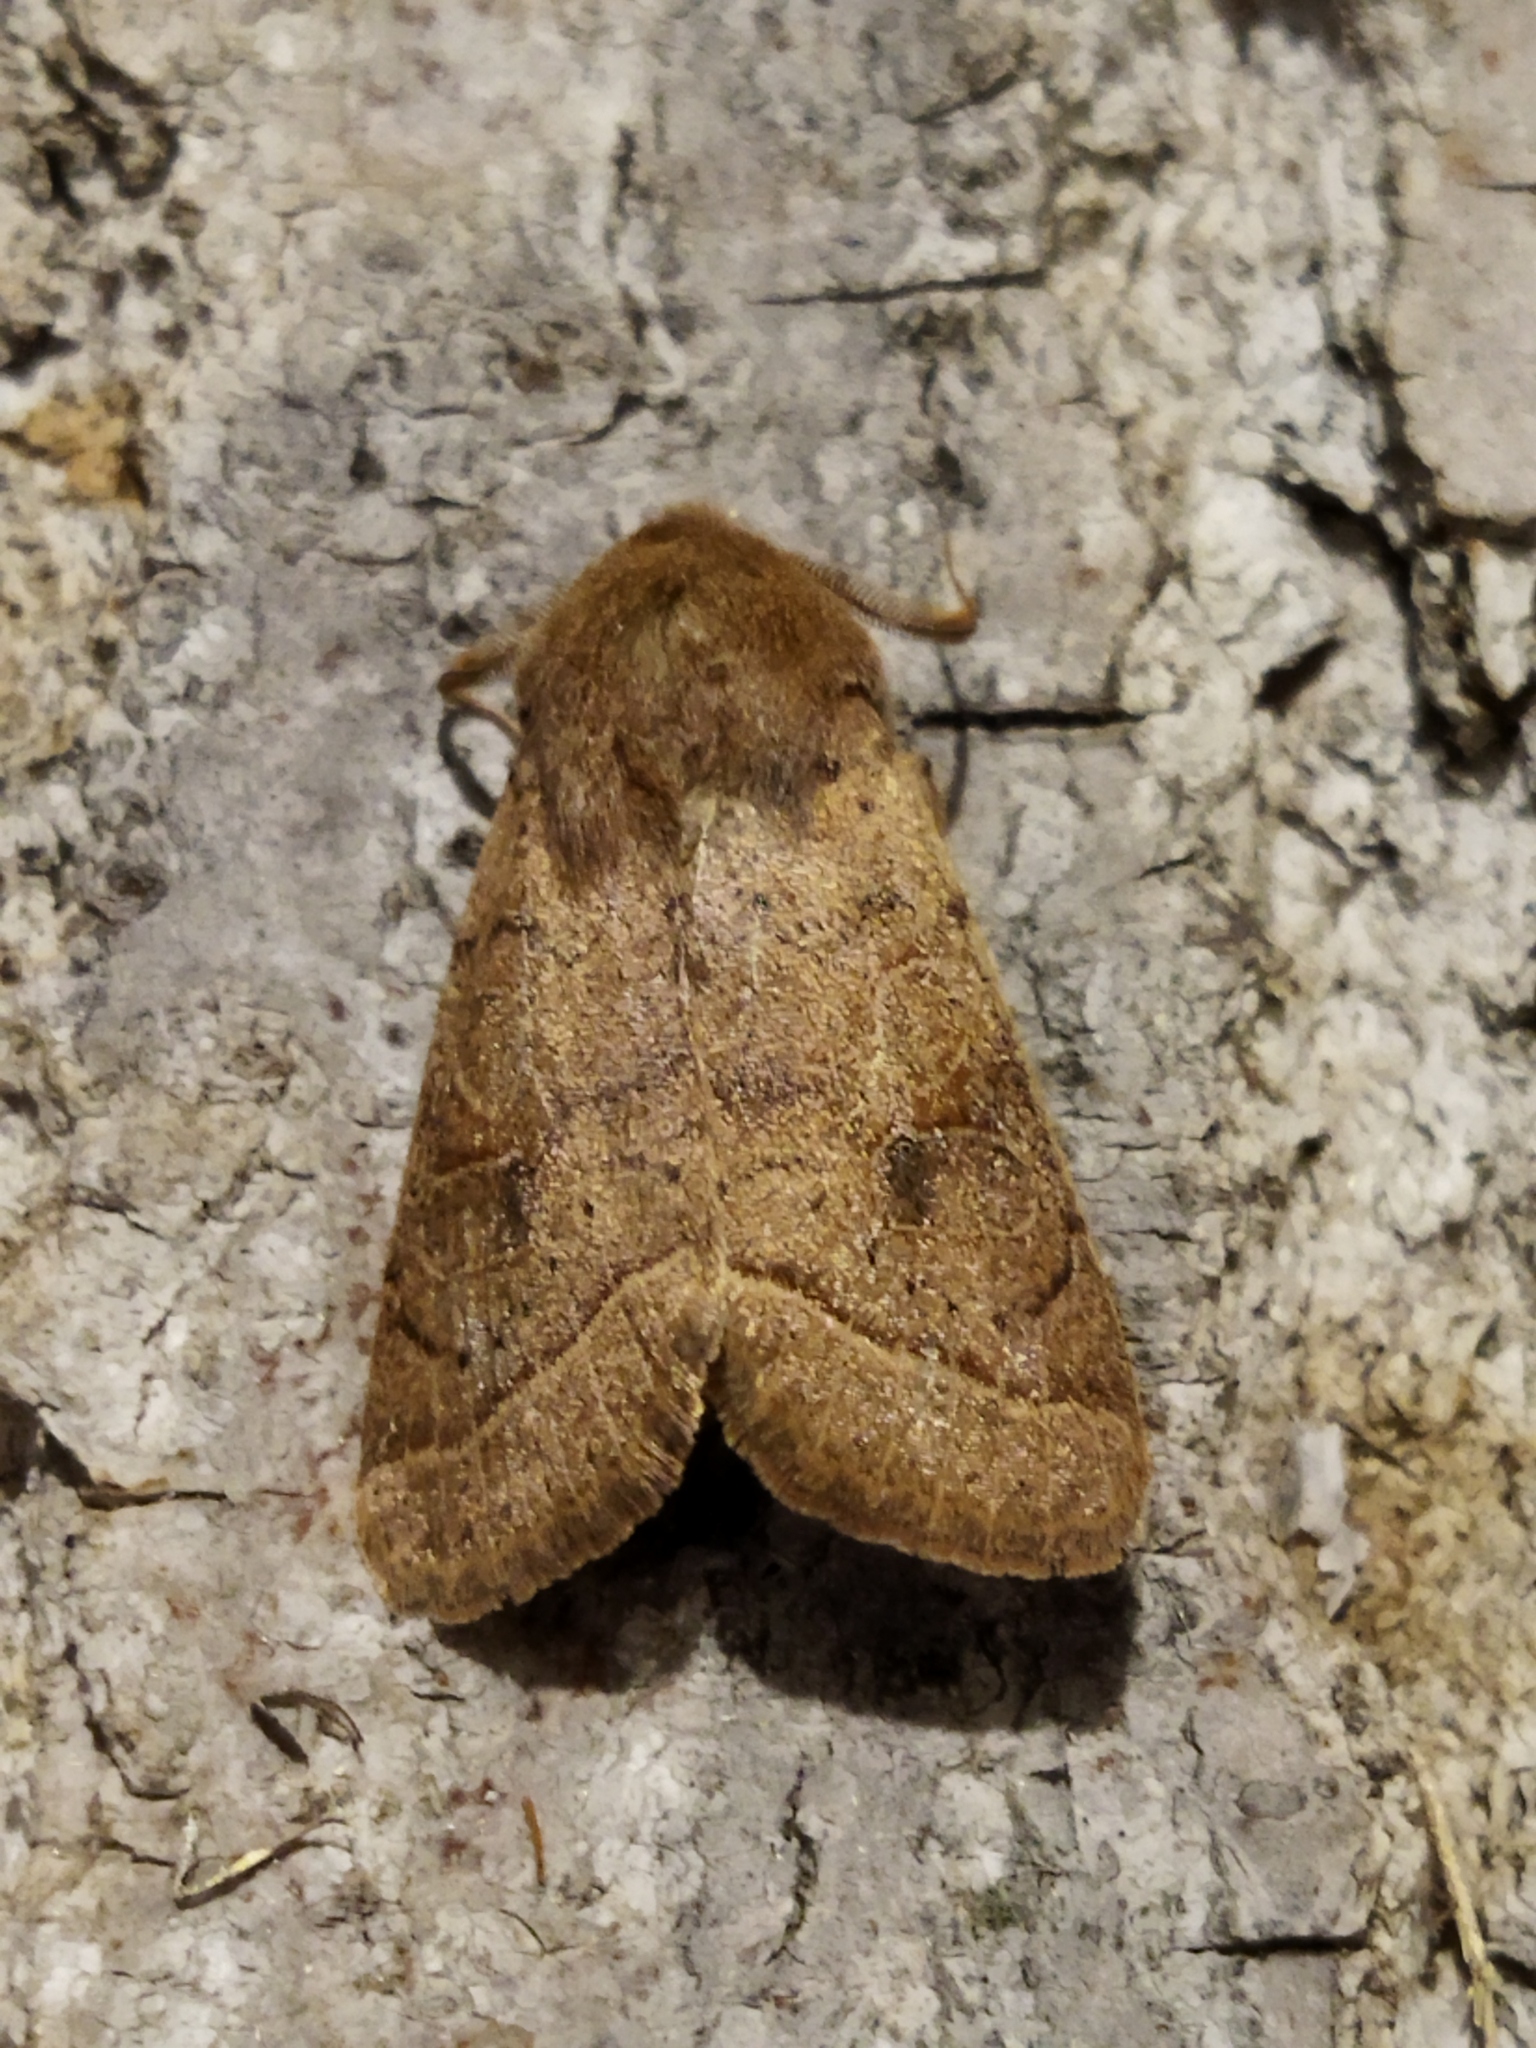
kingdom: Animalia
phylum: Arthropoda
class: Insecta
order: Lepidoptera
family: Noctuidae
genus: Orthosia
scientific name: Orthosia cerasi
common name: Common quaker
